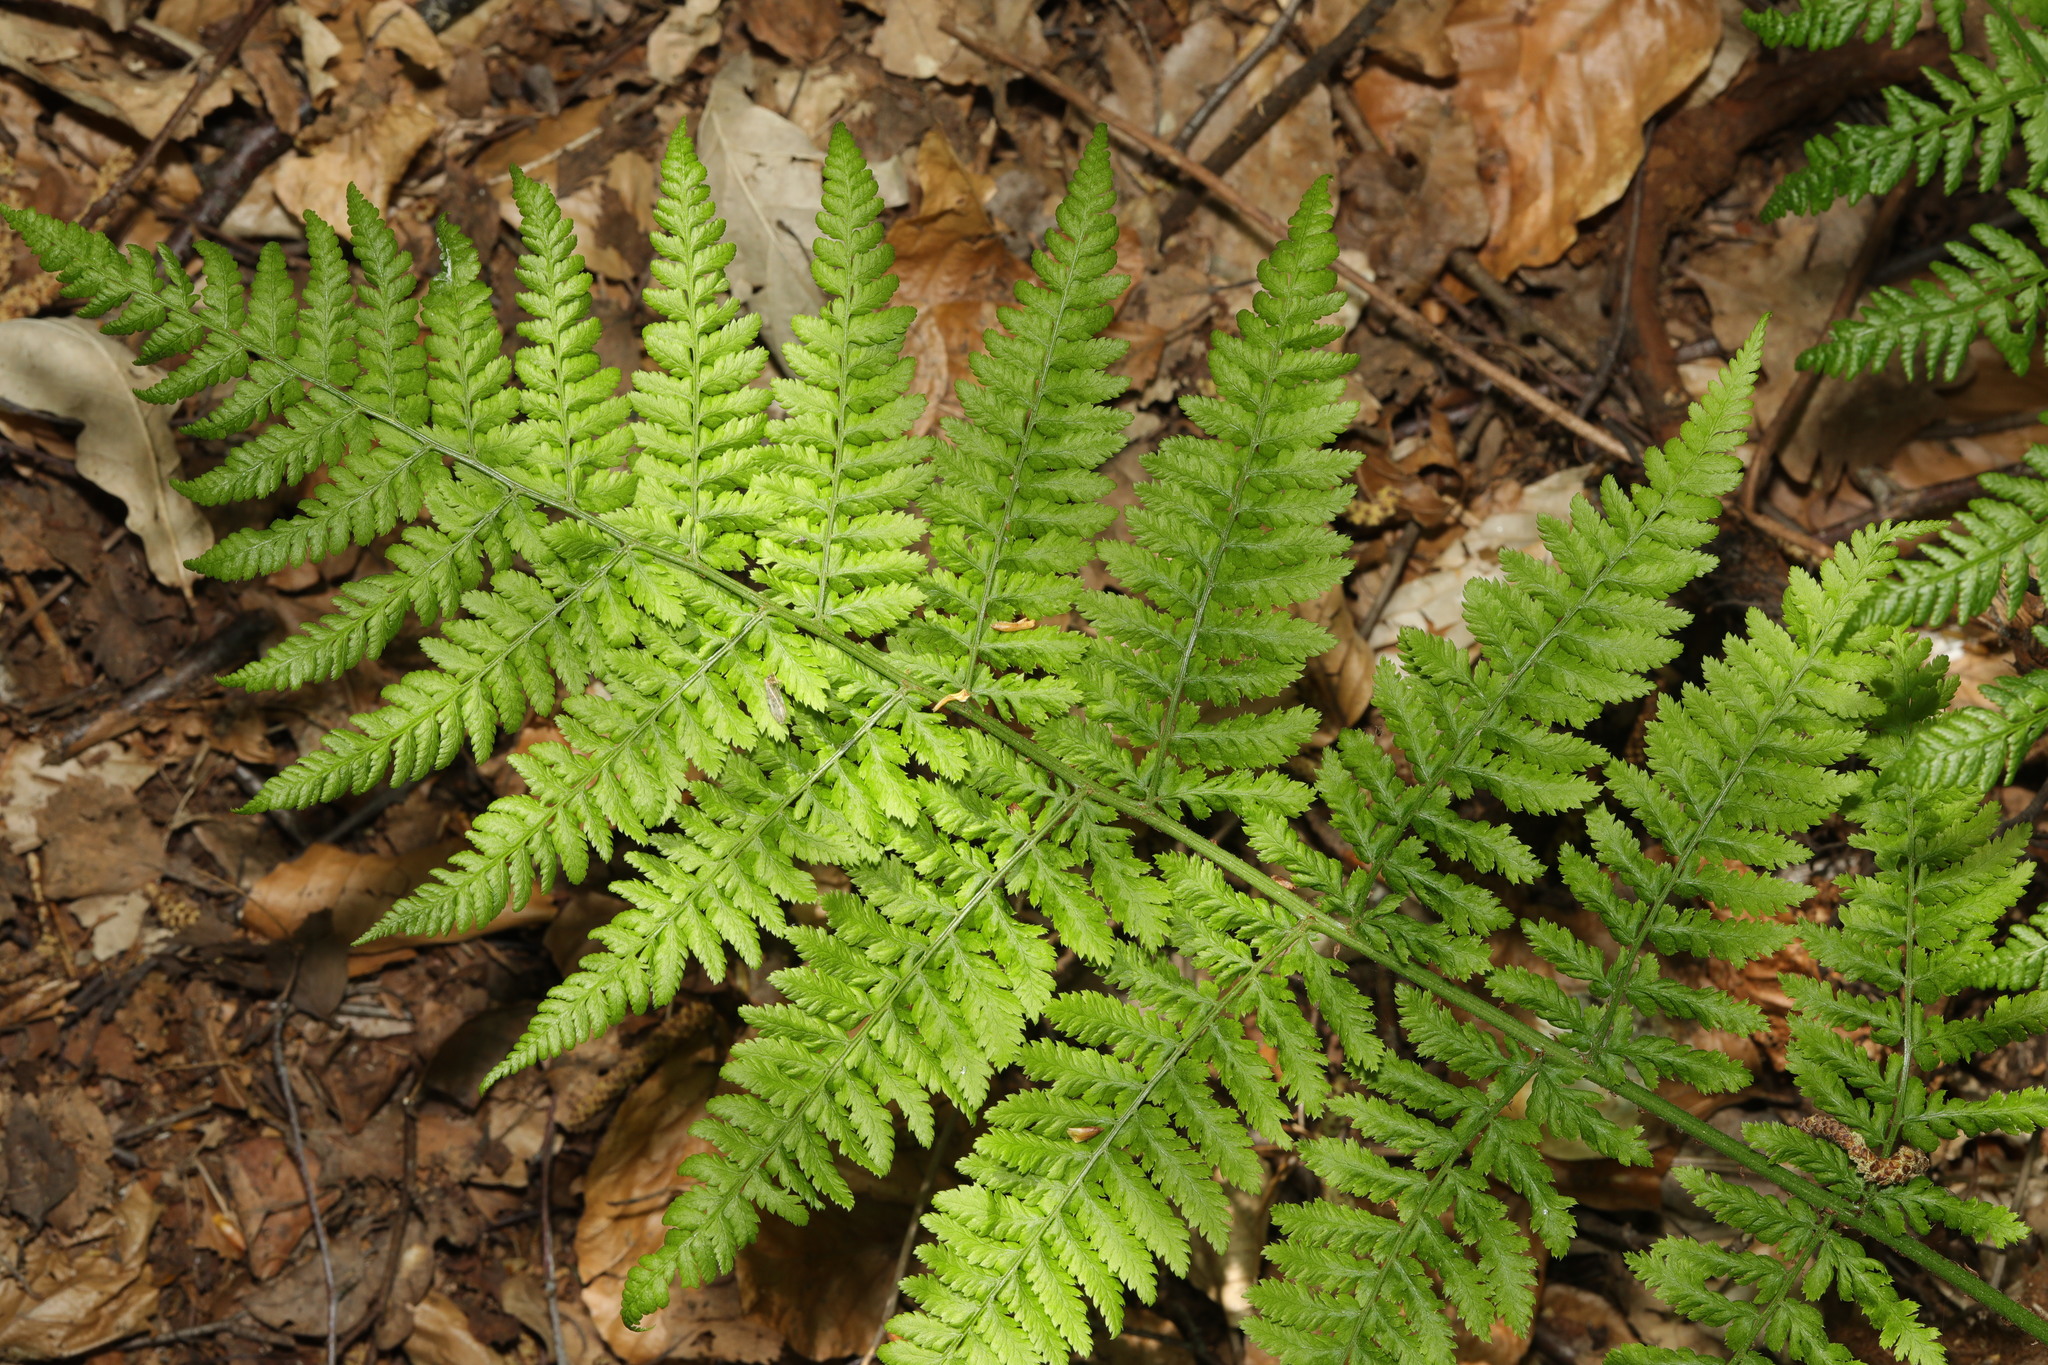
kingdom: Plantae
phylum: Tracheophyta
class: Polypodiopsida
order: Polypodiales
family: Dryopteridaceae
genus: Dryopteris
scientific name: Dryopteris dilatata
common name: Broad buckler-fern
